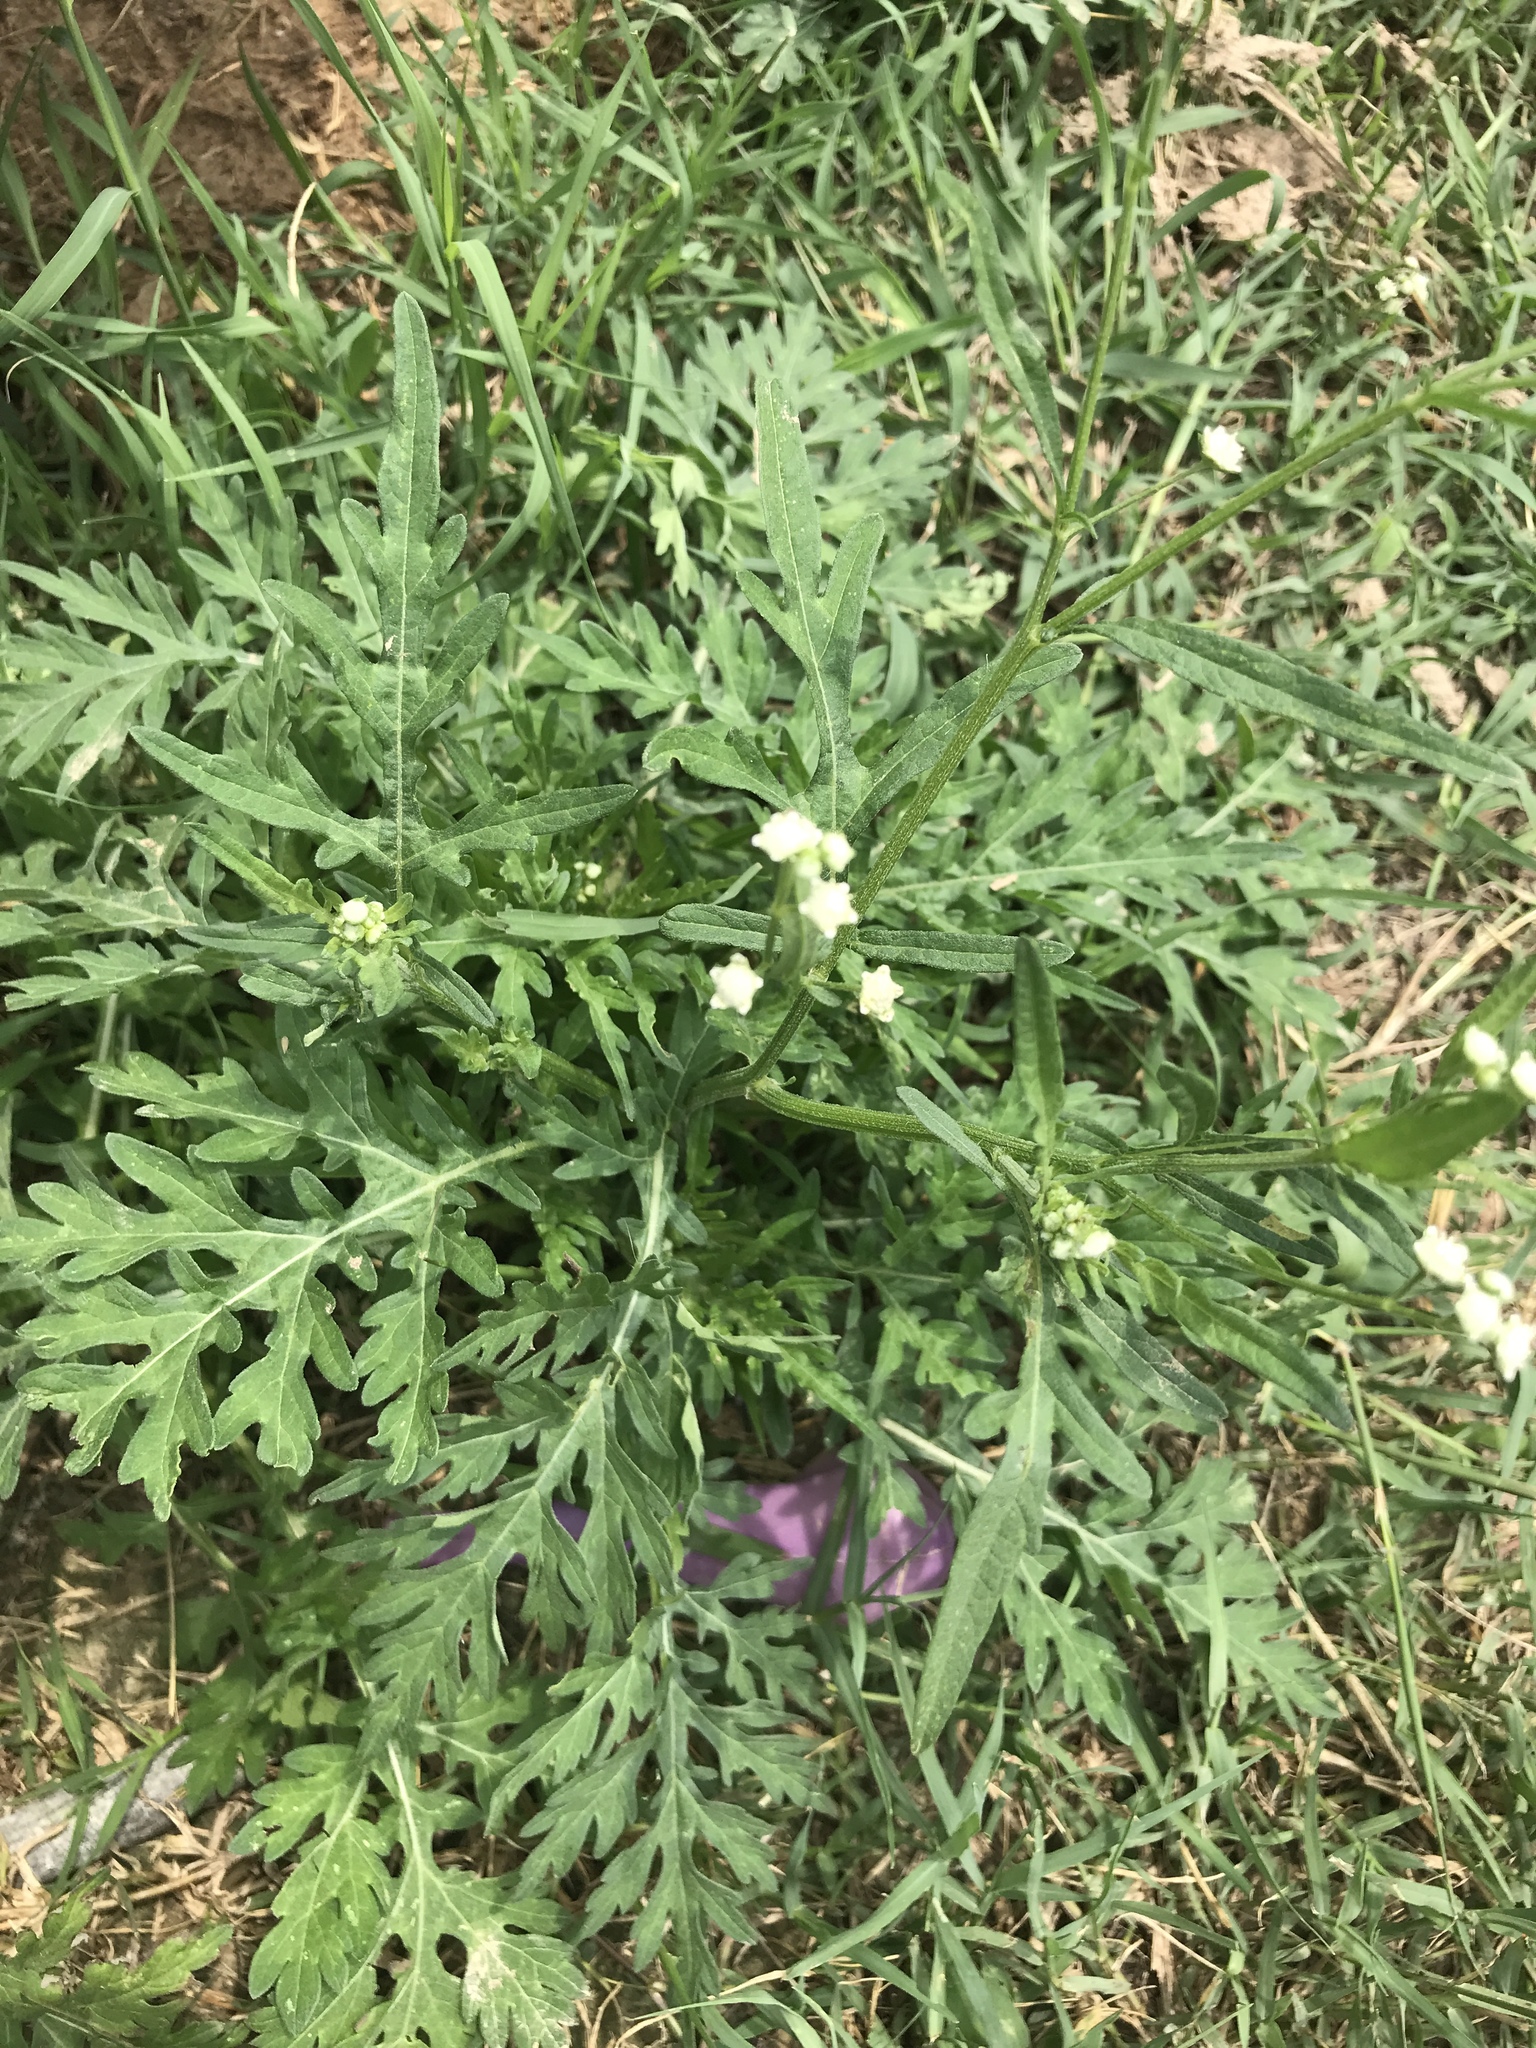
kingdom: Plantae
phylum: Tracheophyta
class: Magnoliopsida
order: Asterales
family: Asteraceae
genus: Parthenium
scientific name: Parthenium hysterophorus
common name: Santa maria feverfew
